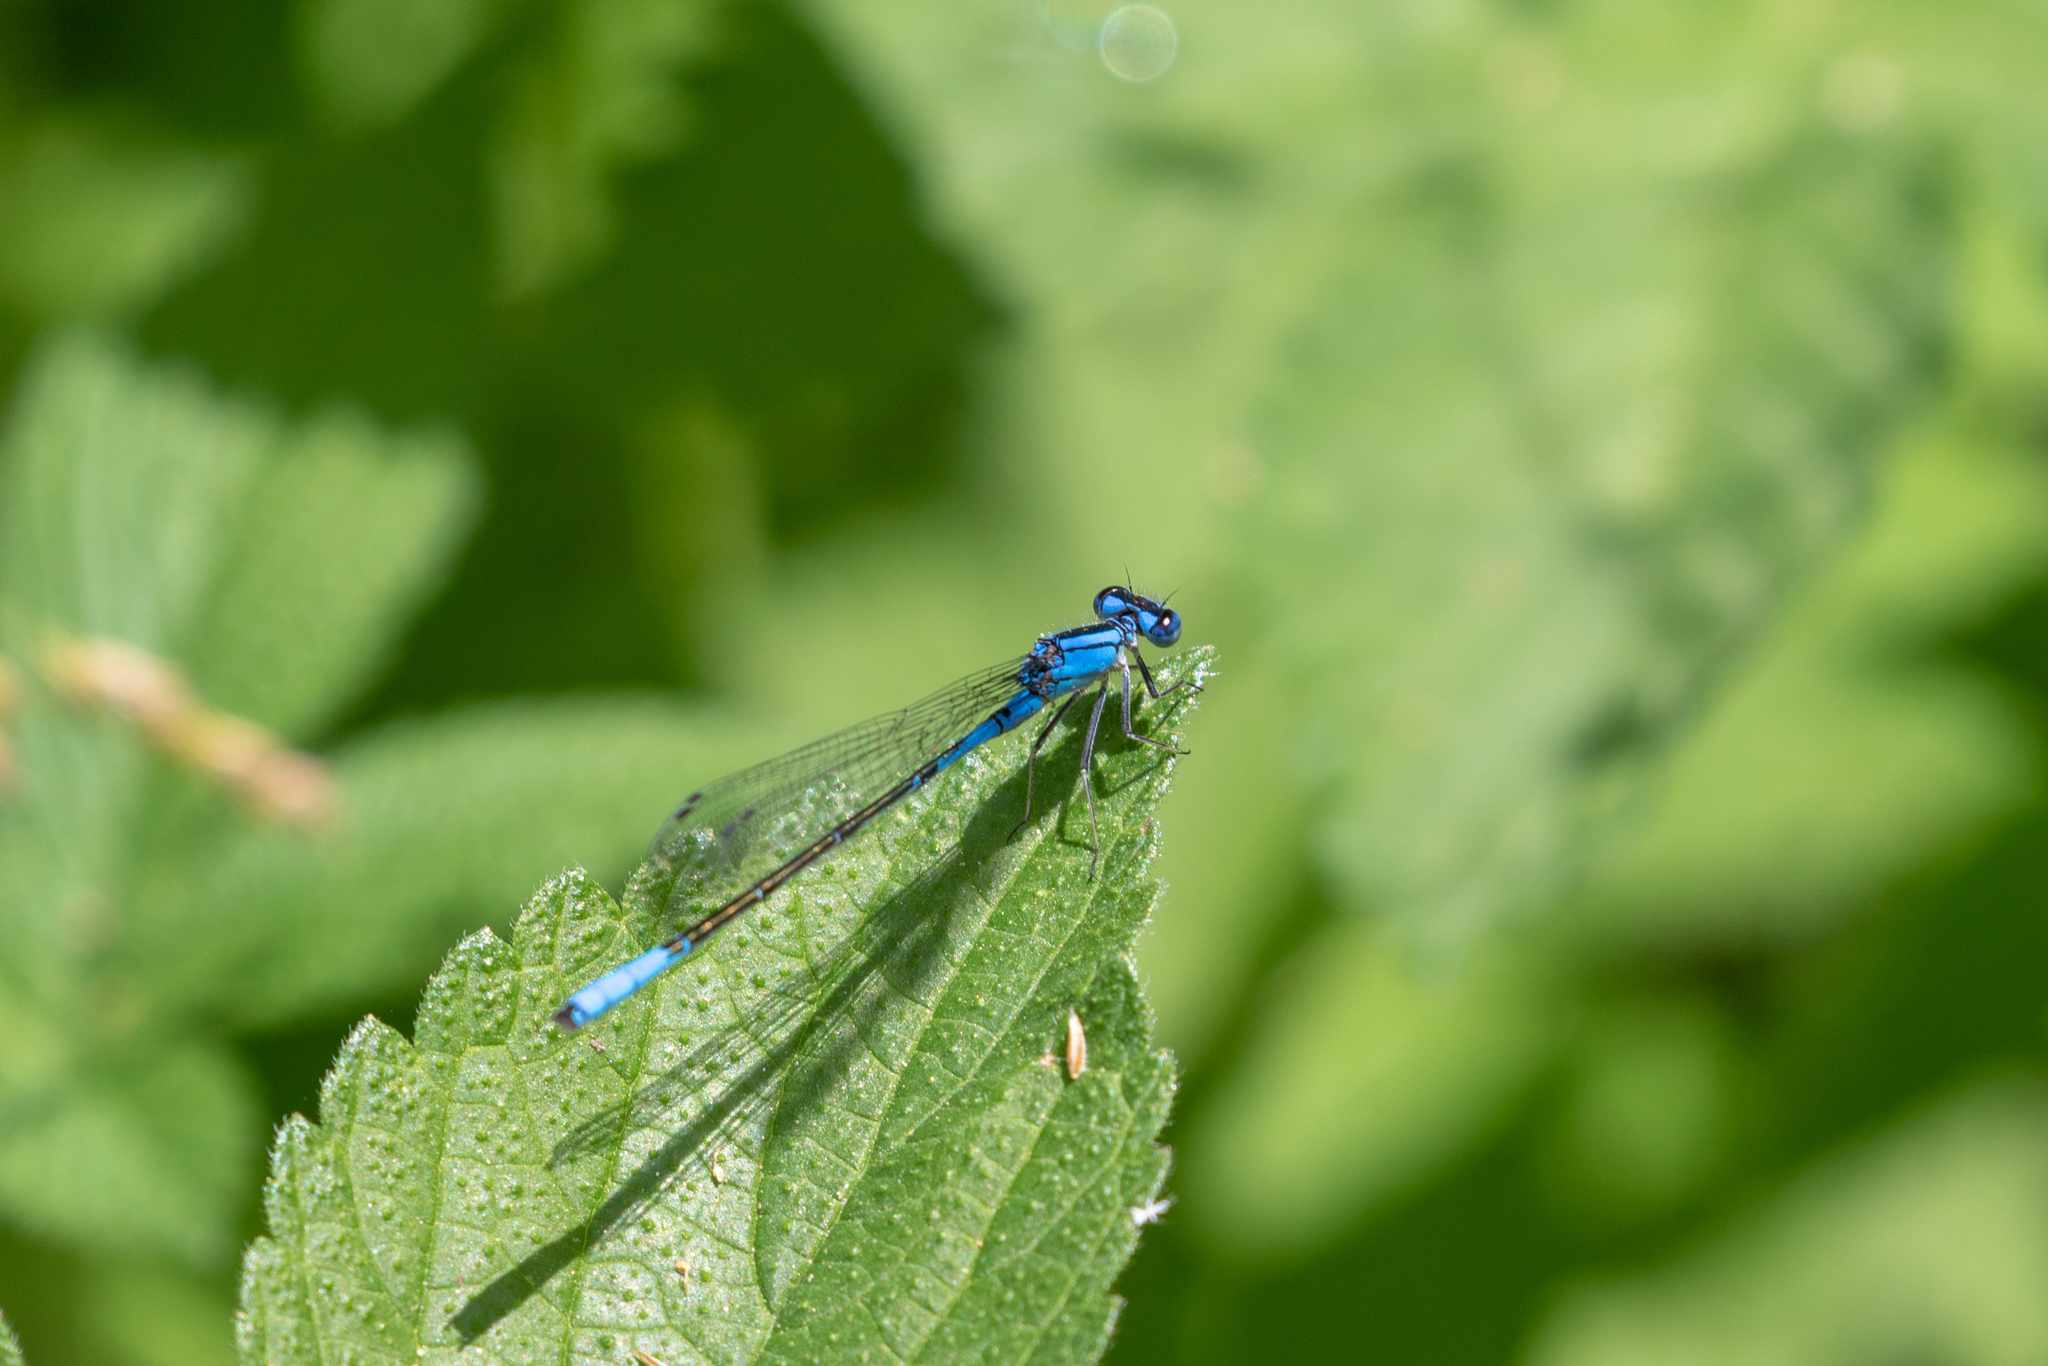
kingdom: Animalia
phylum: Arthropoda
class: Insecta
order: Odonata
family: Coenagrionidae
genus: Enallagma
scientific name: Enallagma aspersum
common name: Azure bluet
